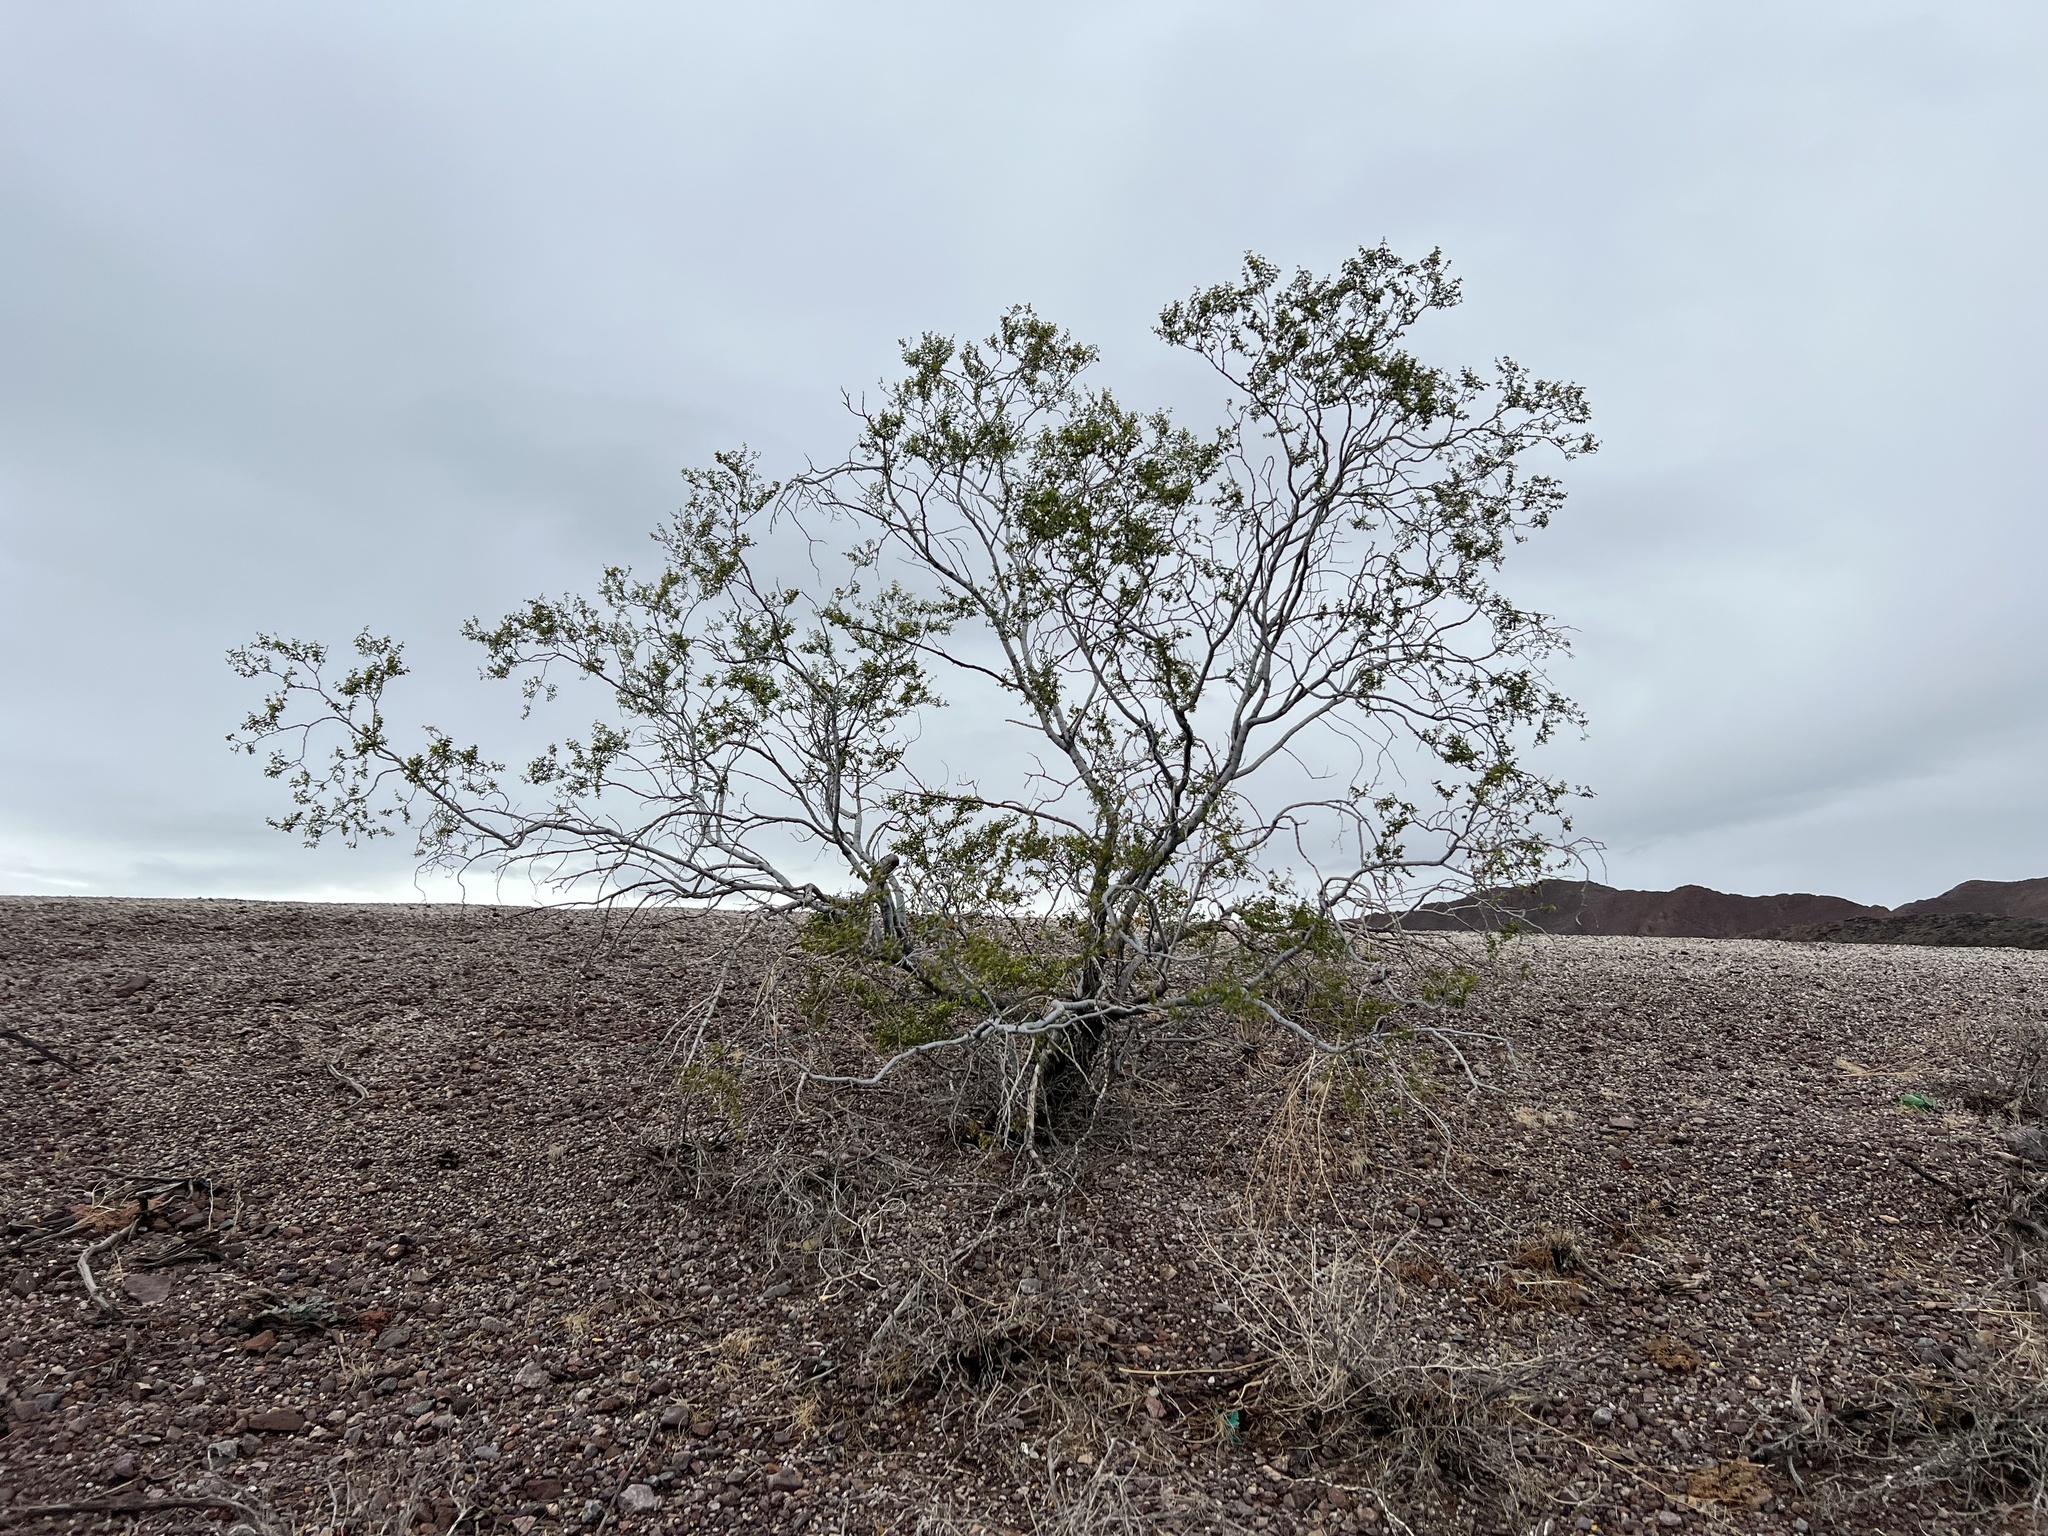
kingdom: Plantae
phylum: Tracheophyta
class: Magnoliopsida
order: Zygophyllales
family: Zygophyllaceae
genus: Larrea
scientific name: Larrea tridentata
